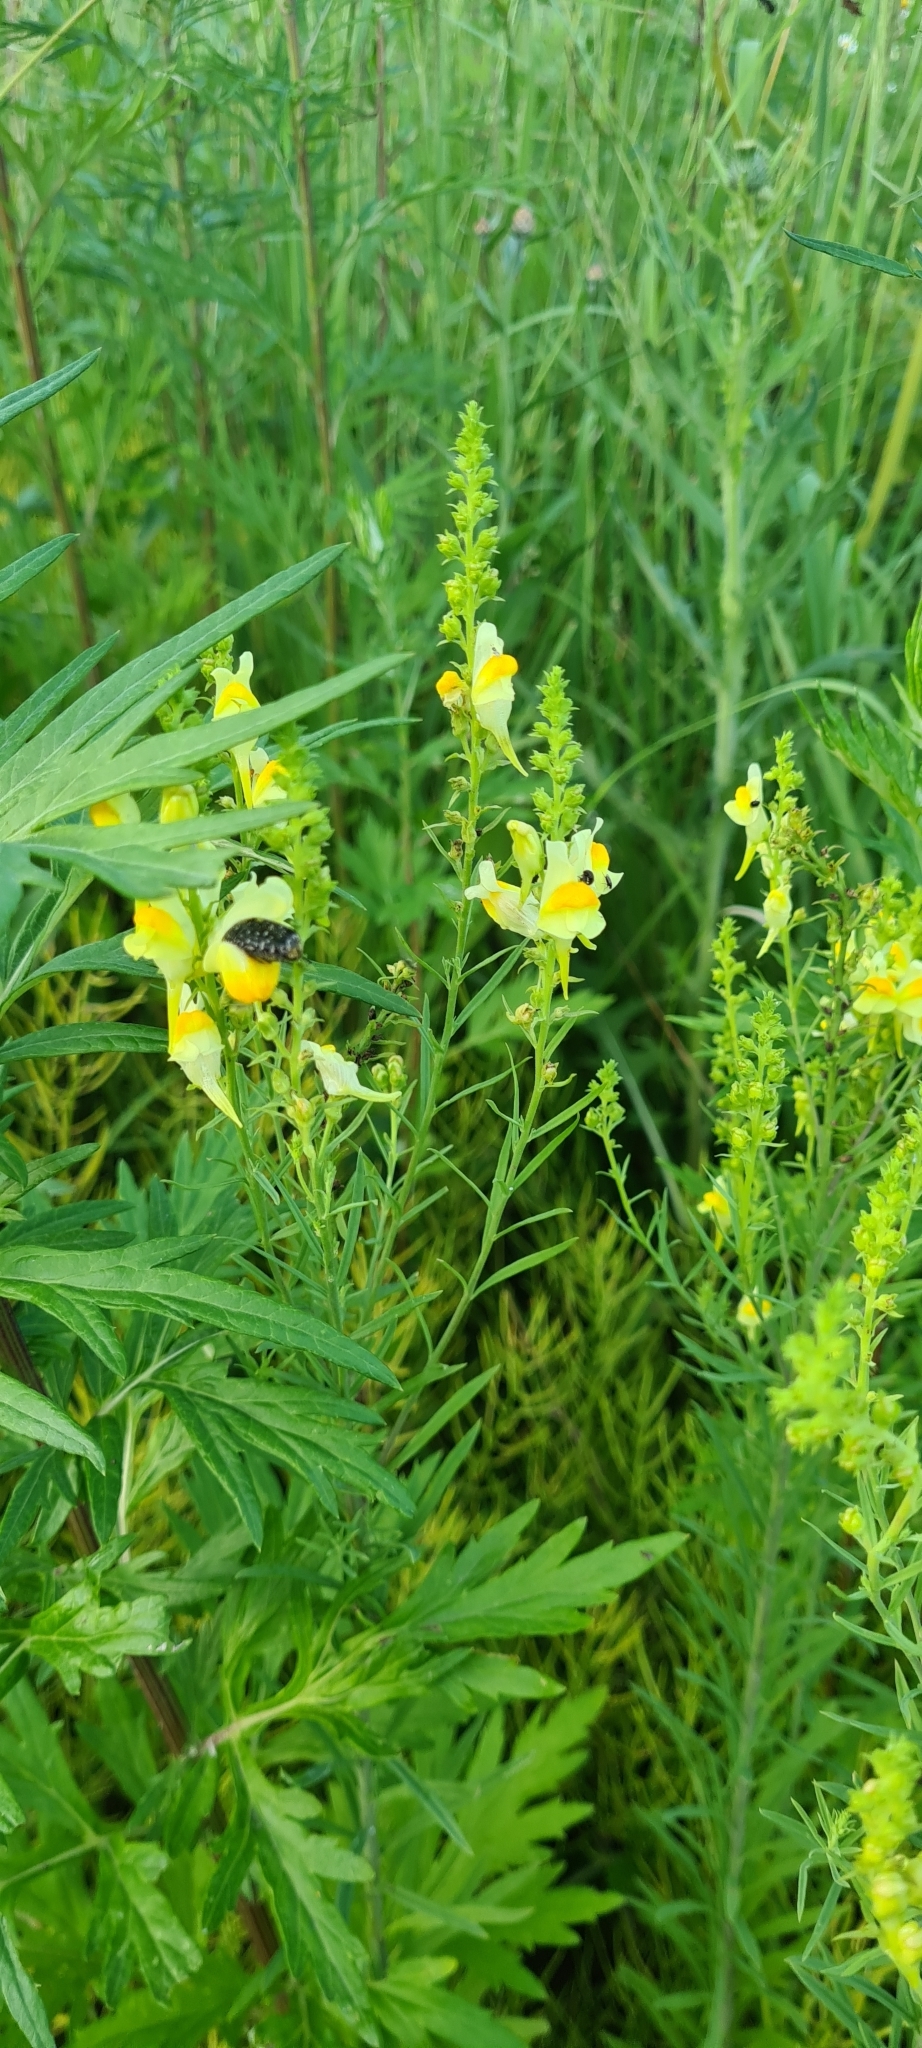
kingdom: Plantae
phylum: Tracheophyta
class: Magnoliopsida
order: Lamiales
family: Plantaginaceae
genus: Linaria
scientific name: Linaria vulgaris
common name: Butter and eggs
